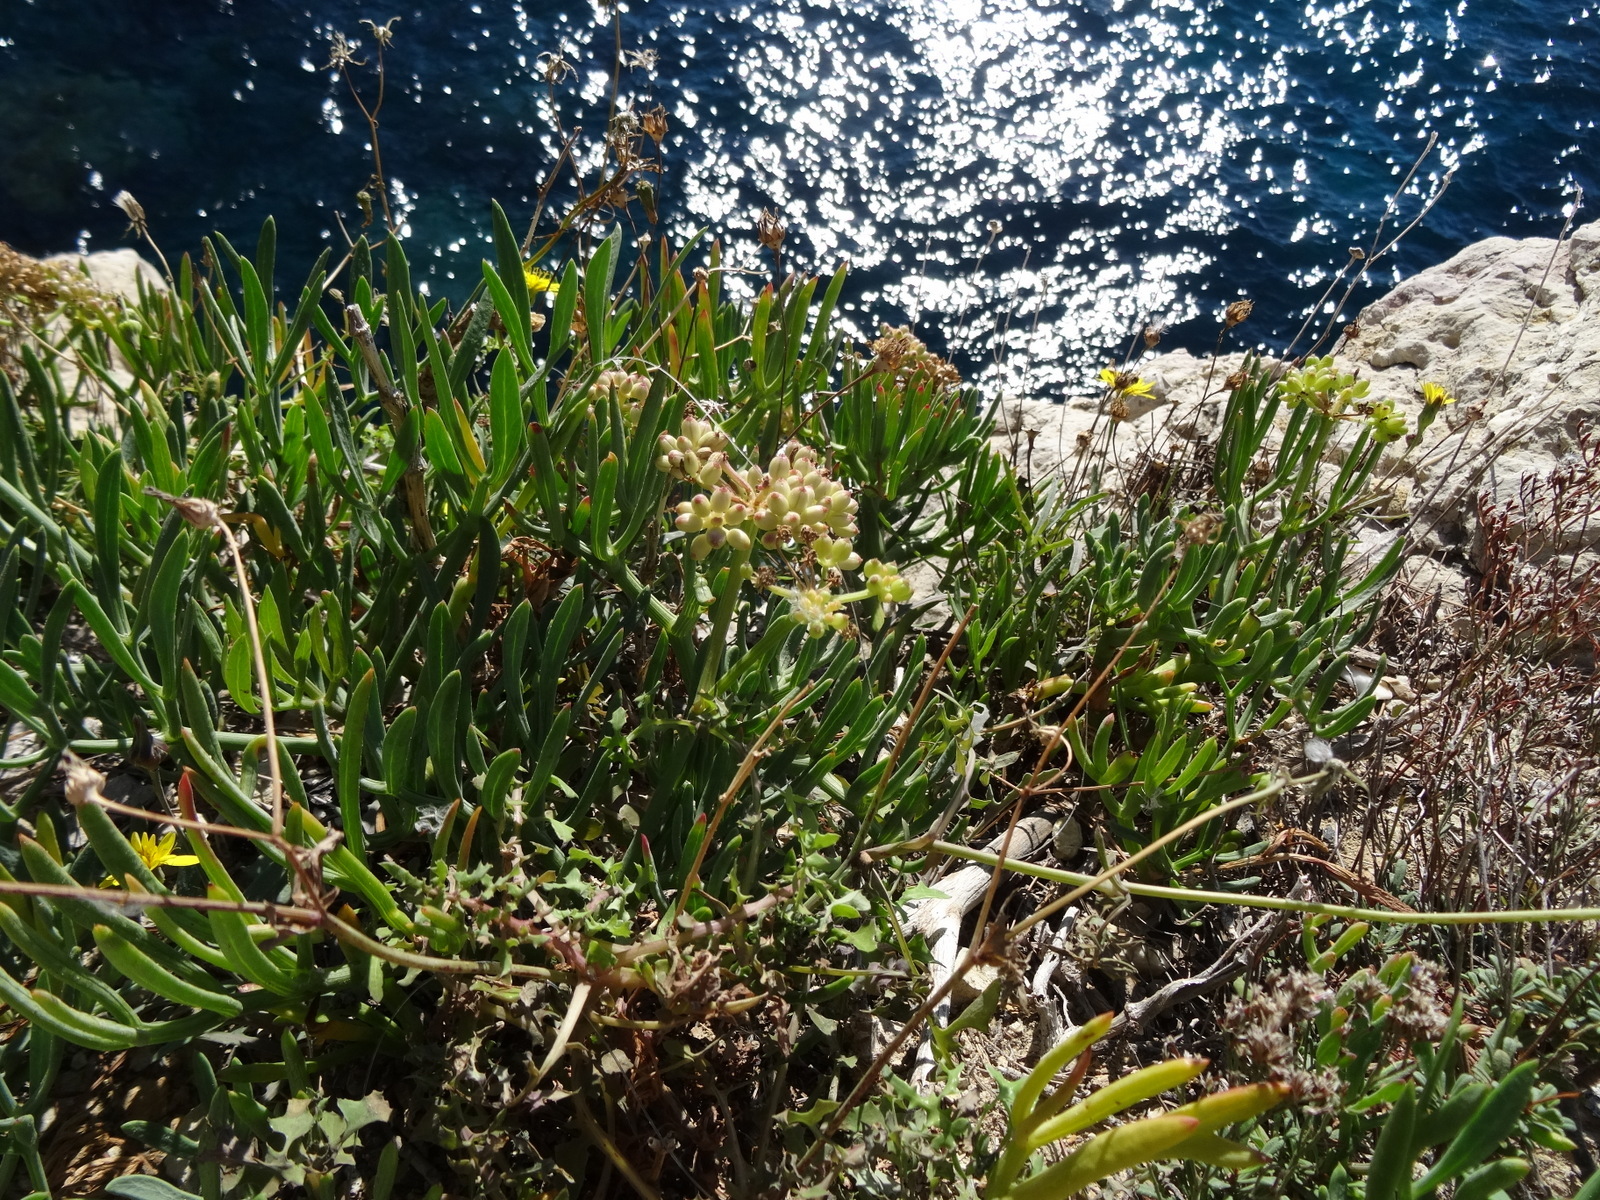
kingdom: Plantae
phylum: Tracheophyta
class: Magnoliopsida
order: Apiales
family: Apiaceae
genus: Crithmum
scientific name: Crithmum maritimum
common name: Rock samphire
